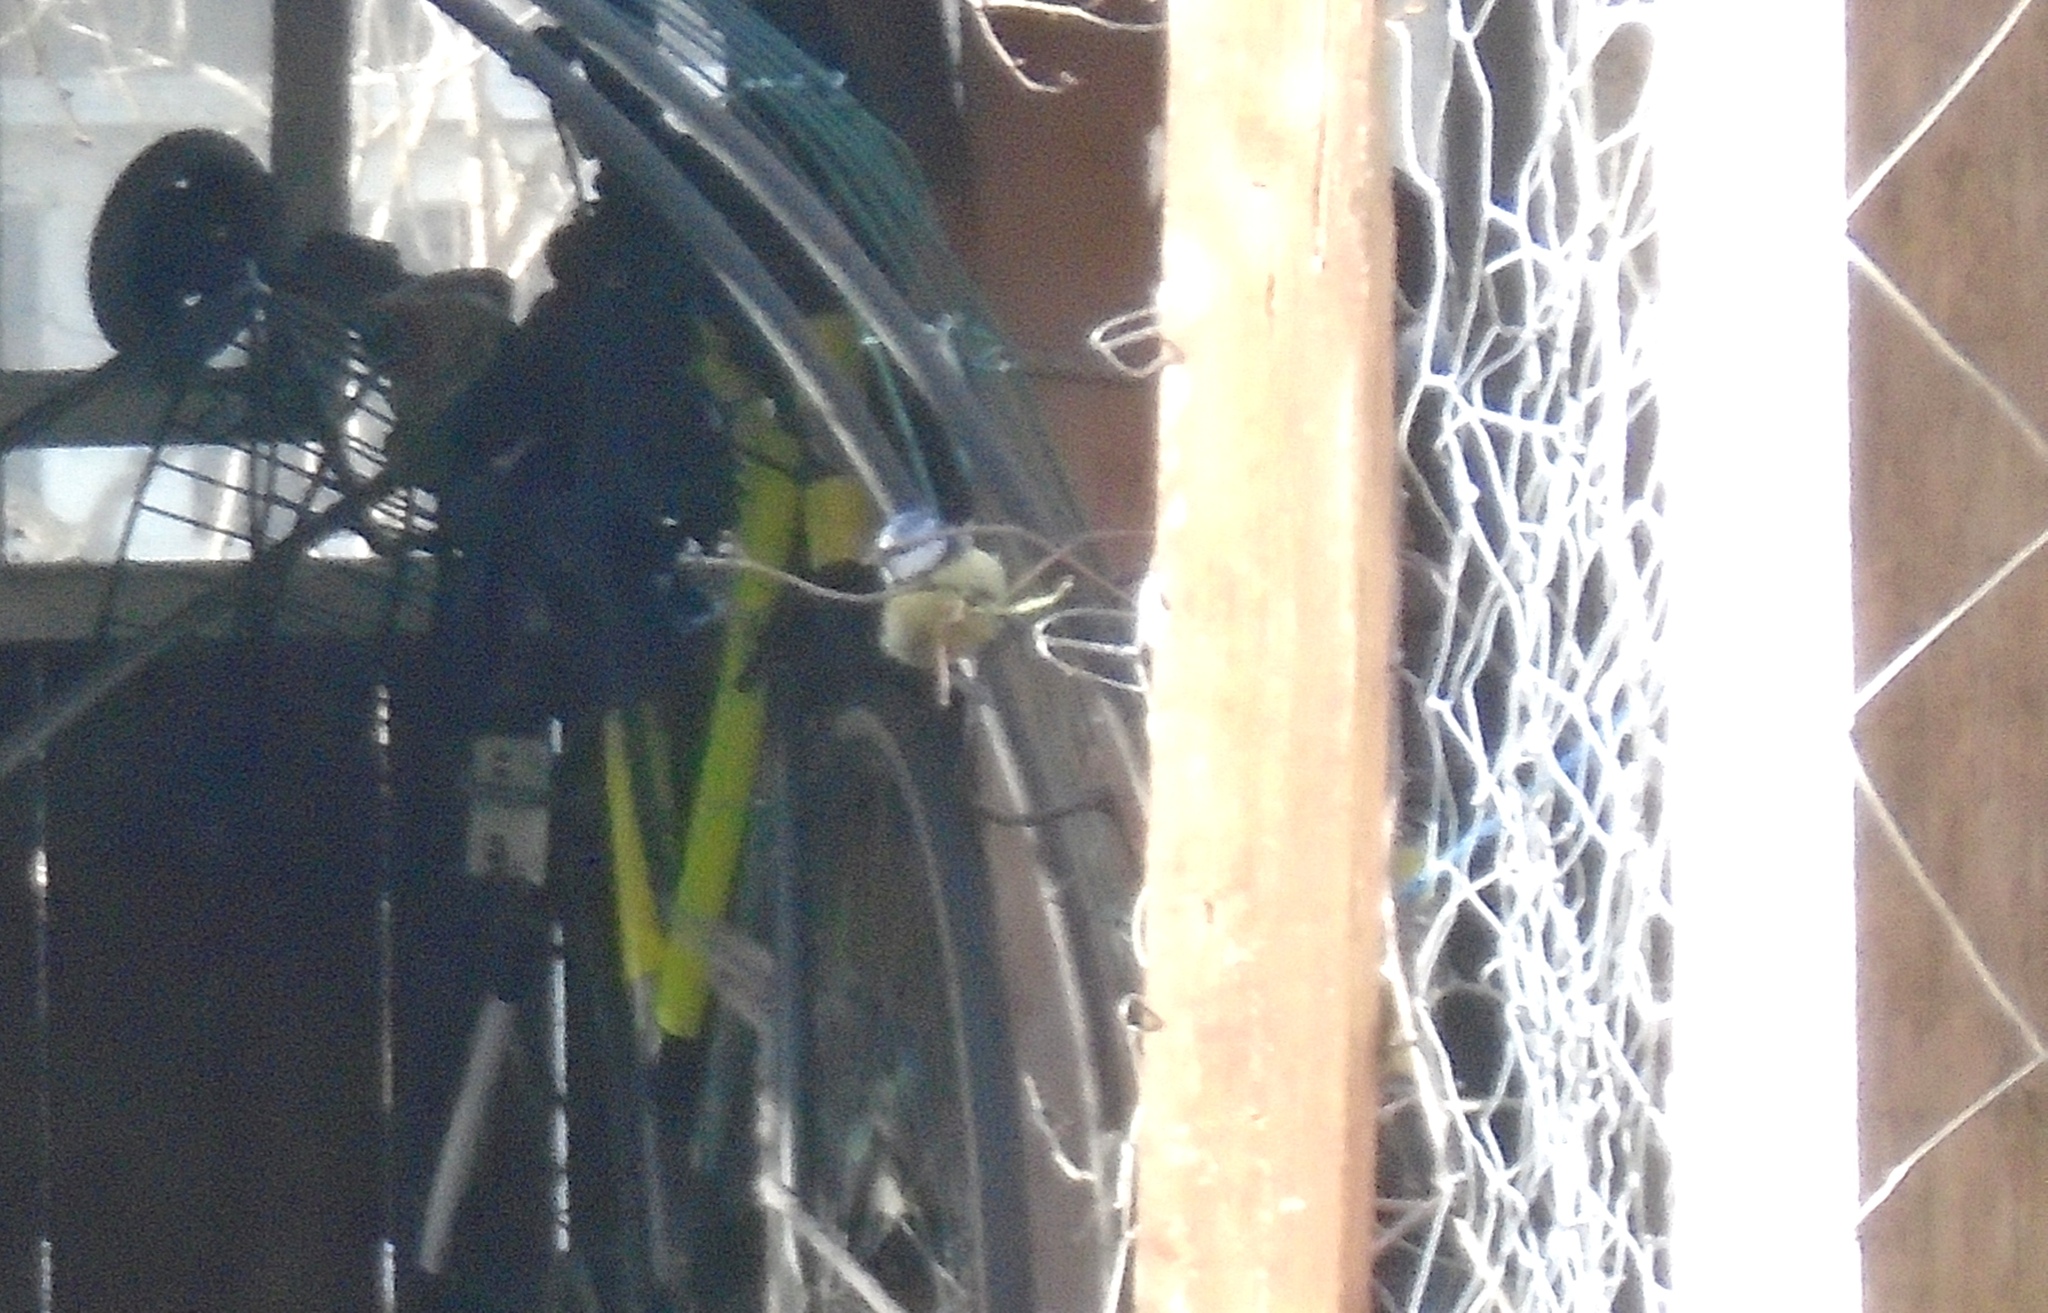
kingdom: Animalia
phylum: Chordata
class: Aves
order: Passeriformes
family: Paridae
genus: Cyanistes
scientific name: Cyanistes caeruleus
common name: Eurasian blue tit
